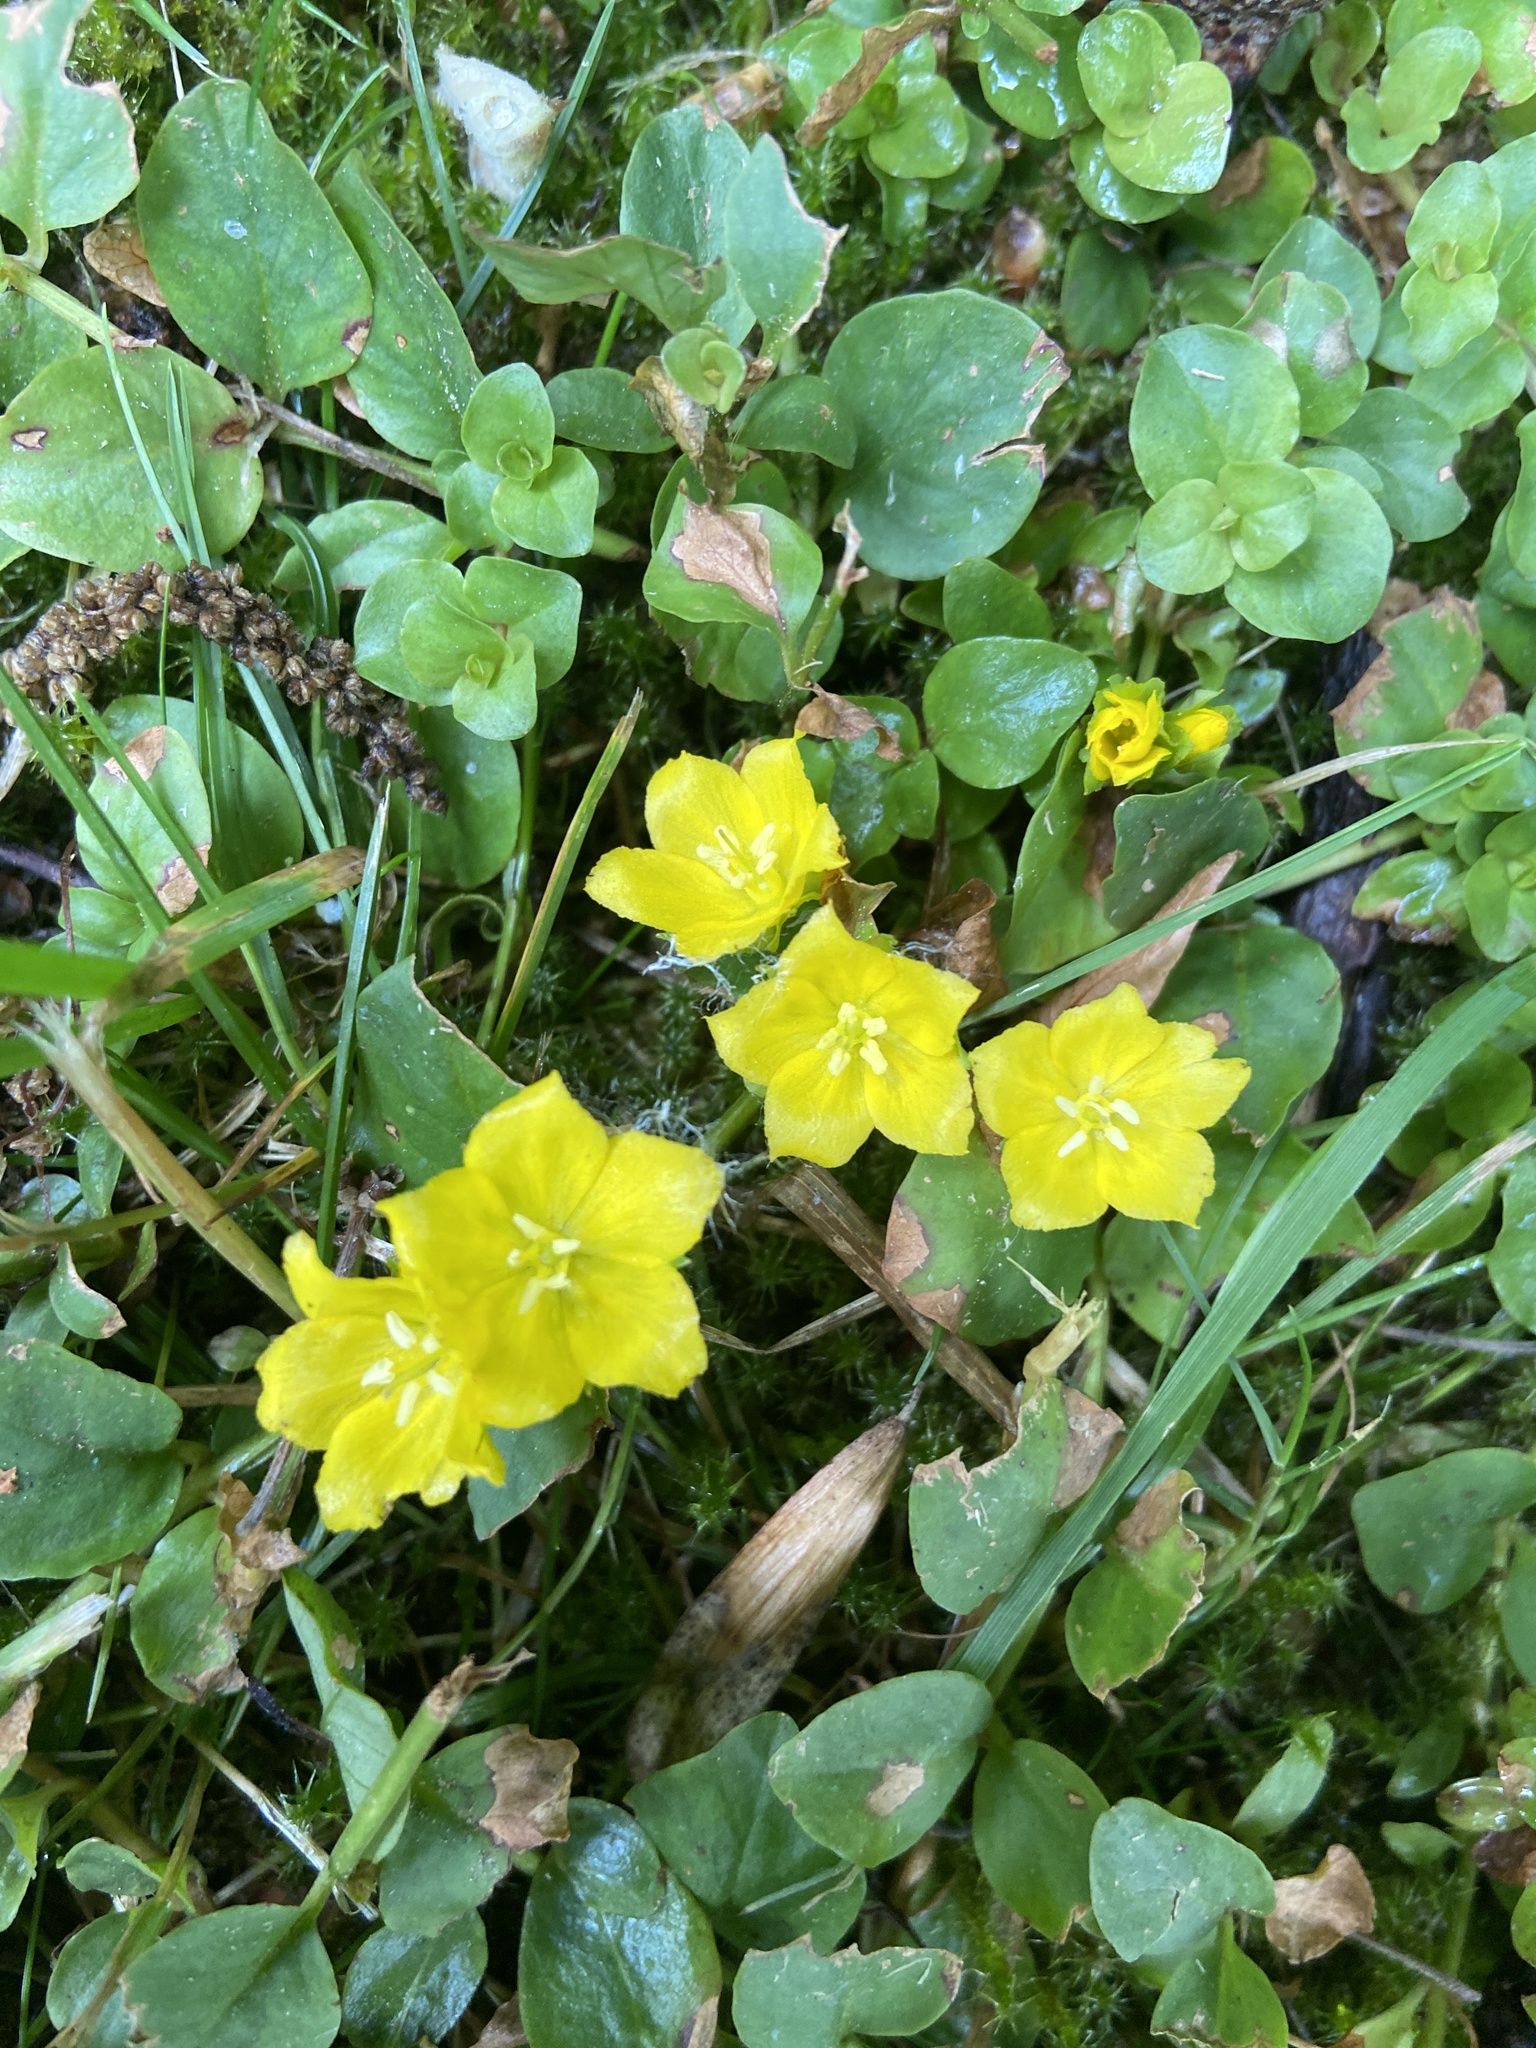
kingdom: Plantae
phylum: Tracheophyta
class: Magnoliopsida
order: Ericales
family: Primulaceae
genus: Lysimachia
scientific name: Lysimachia nummularia
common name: Moneywort
